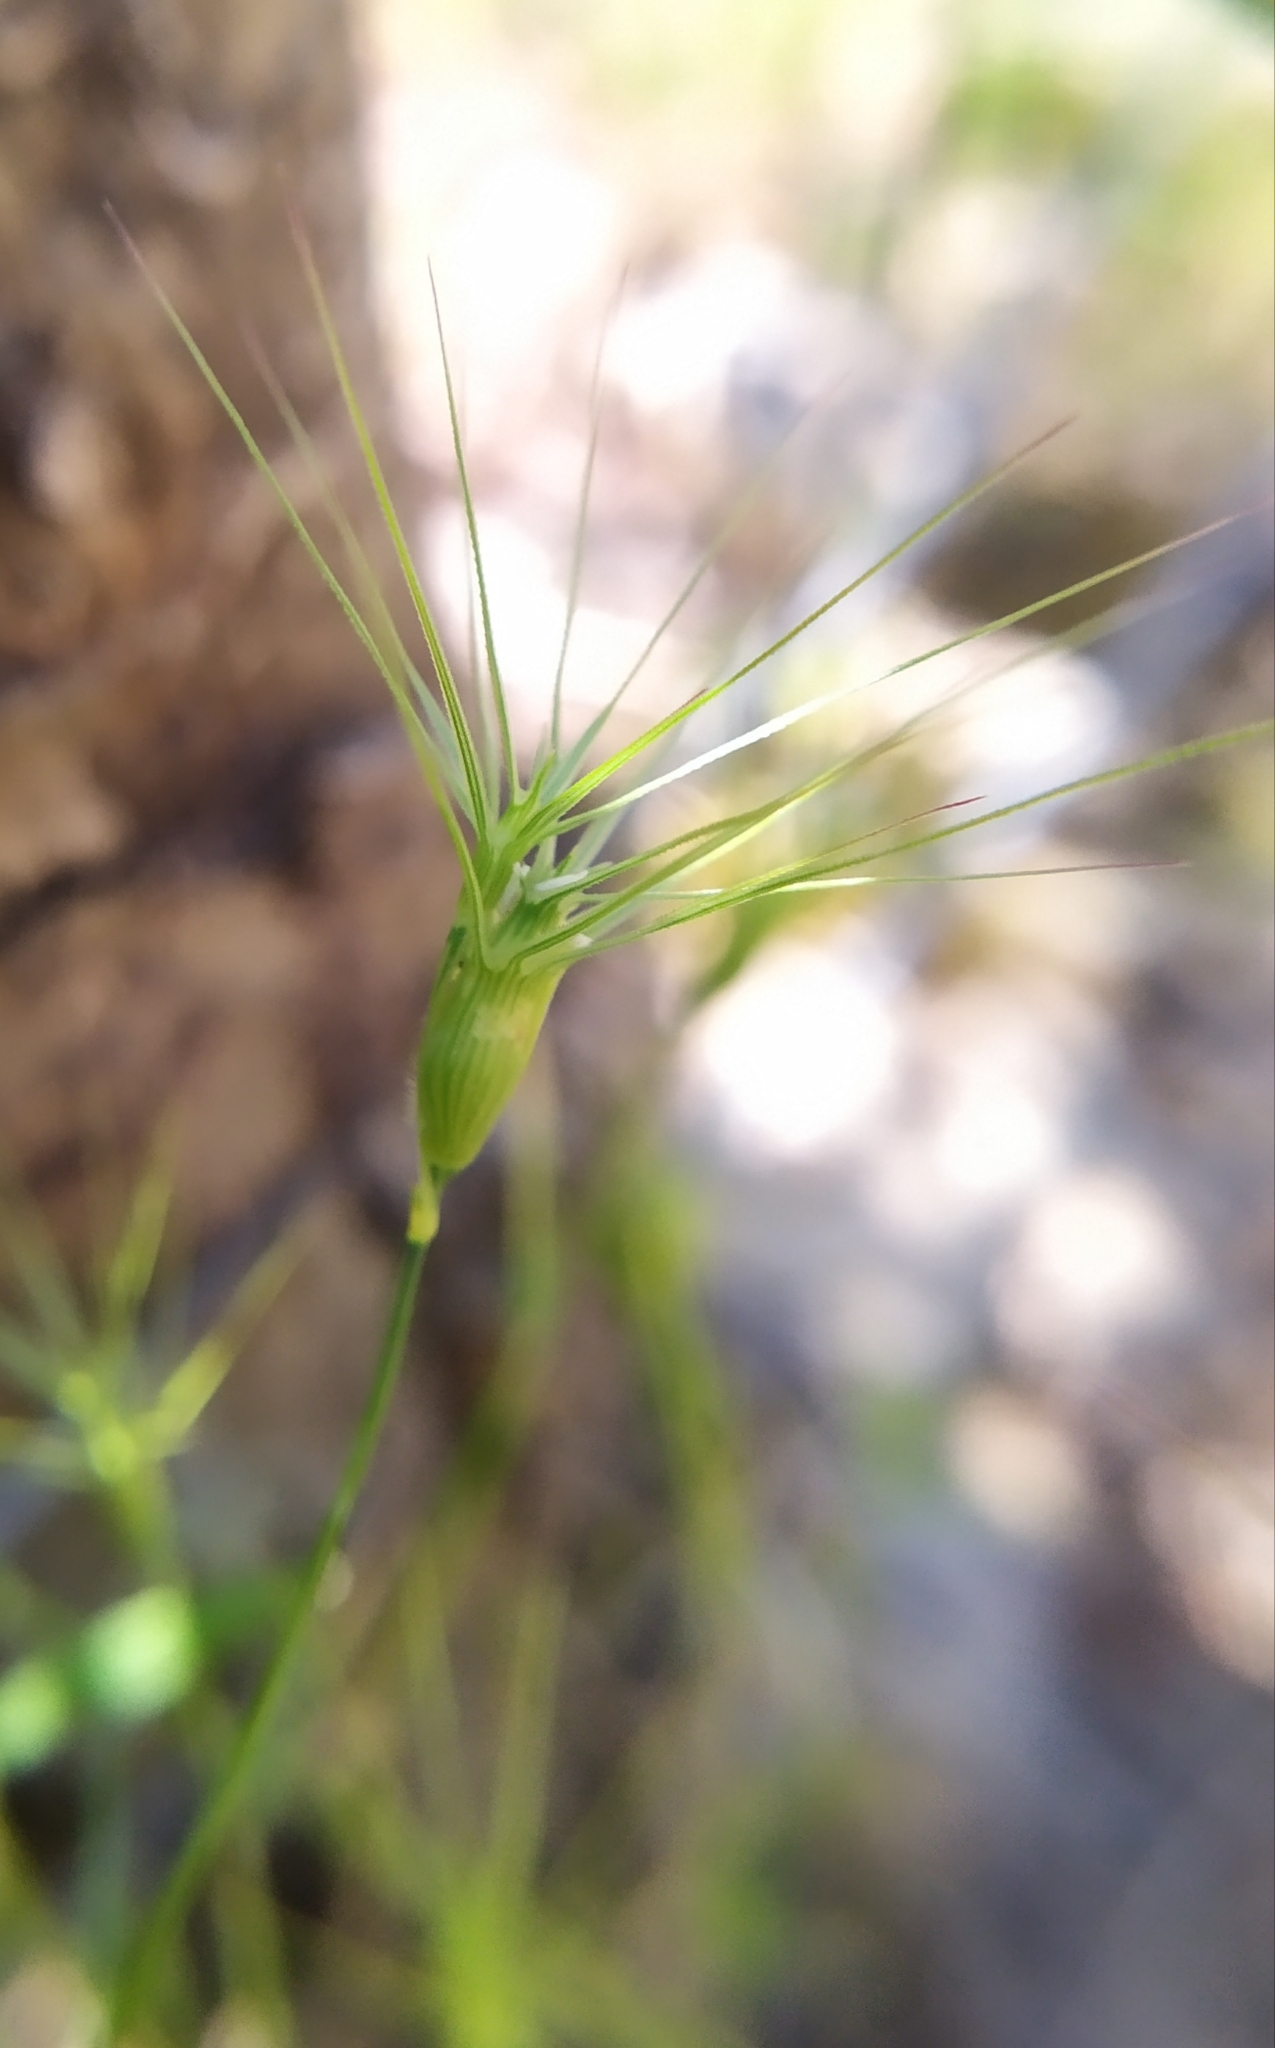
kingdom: Plantae
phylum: Tracheophyta
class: Liliopsida
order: Poales
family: Poaceae
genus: Aegilops
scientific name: Aegilops geniculata
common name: Ovate goat grass
